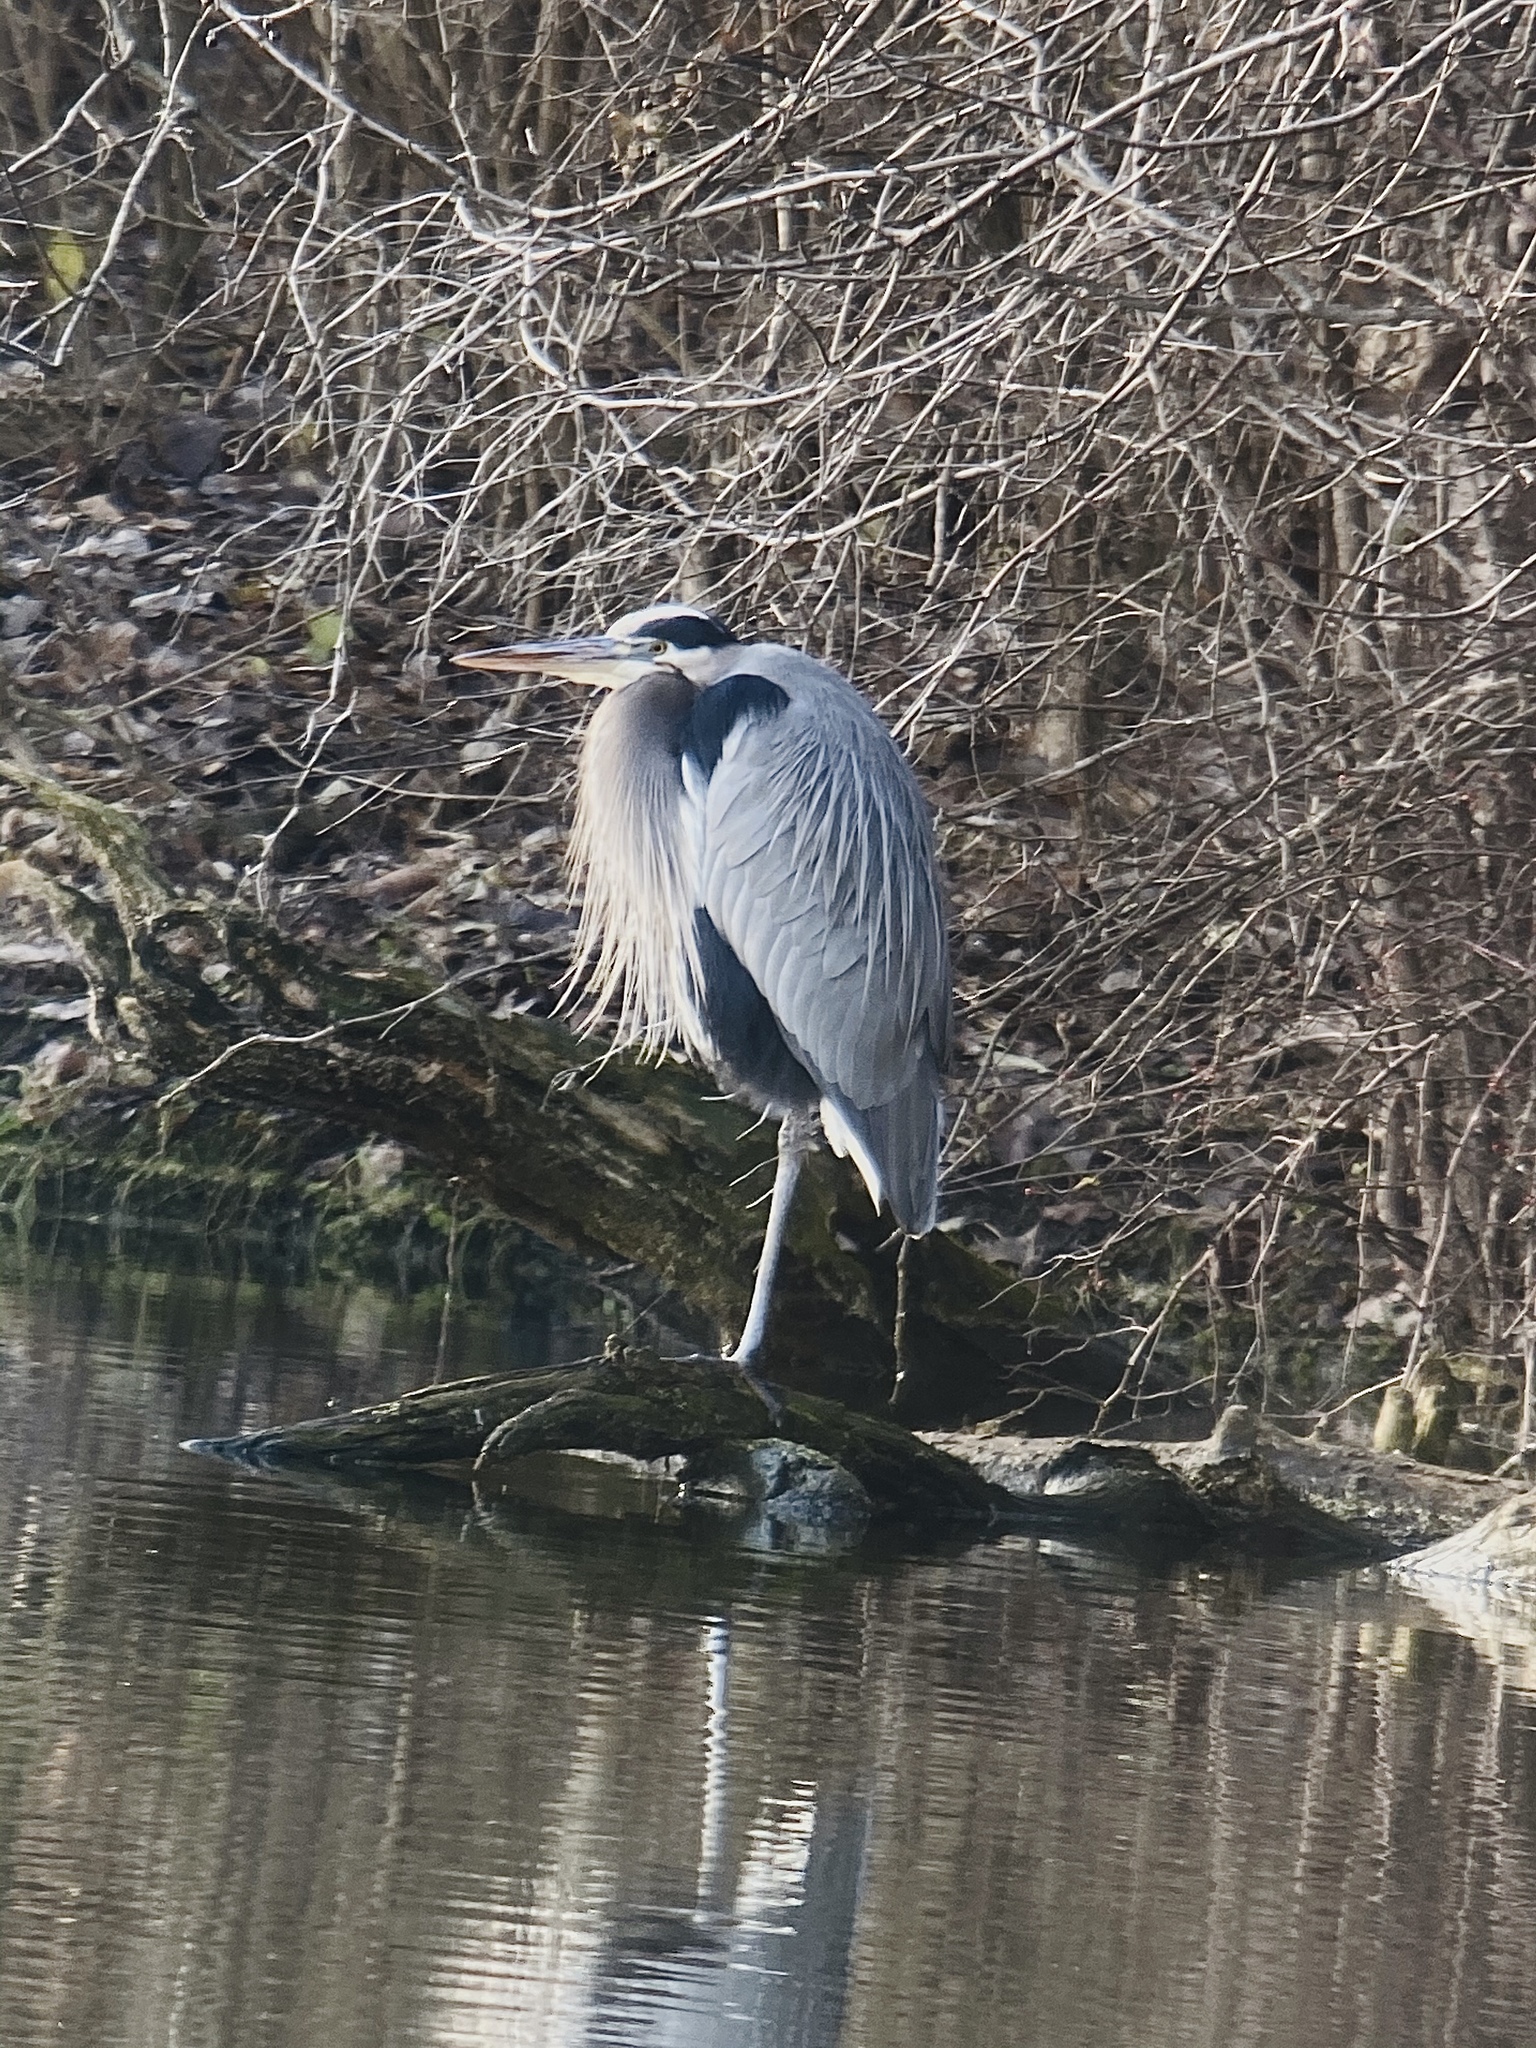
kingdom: Animalia
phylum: Chordata
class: Aves
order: Pelecaniformes
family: Ardeidae
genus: Ardea
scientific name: Ardea herodias
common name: Great blue heron
